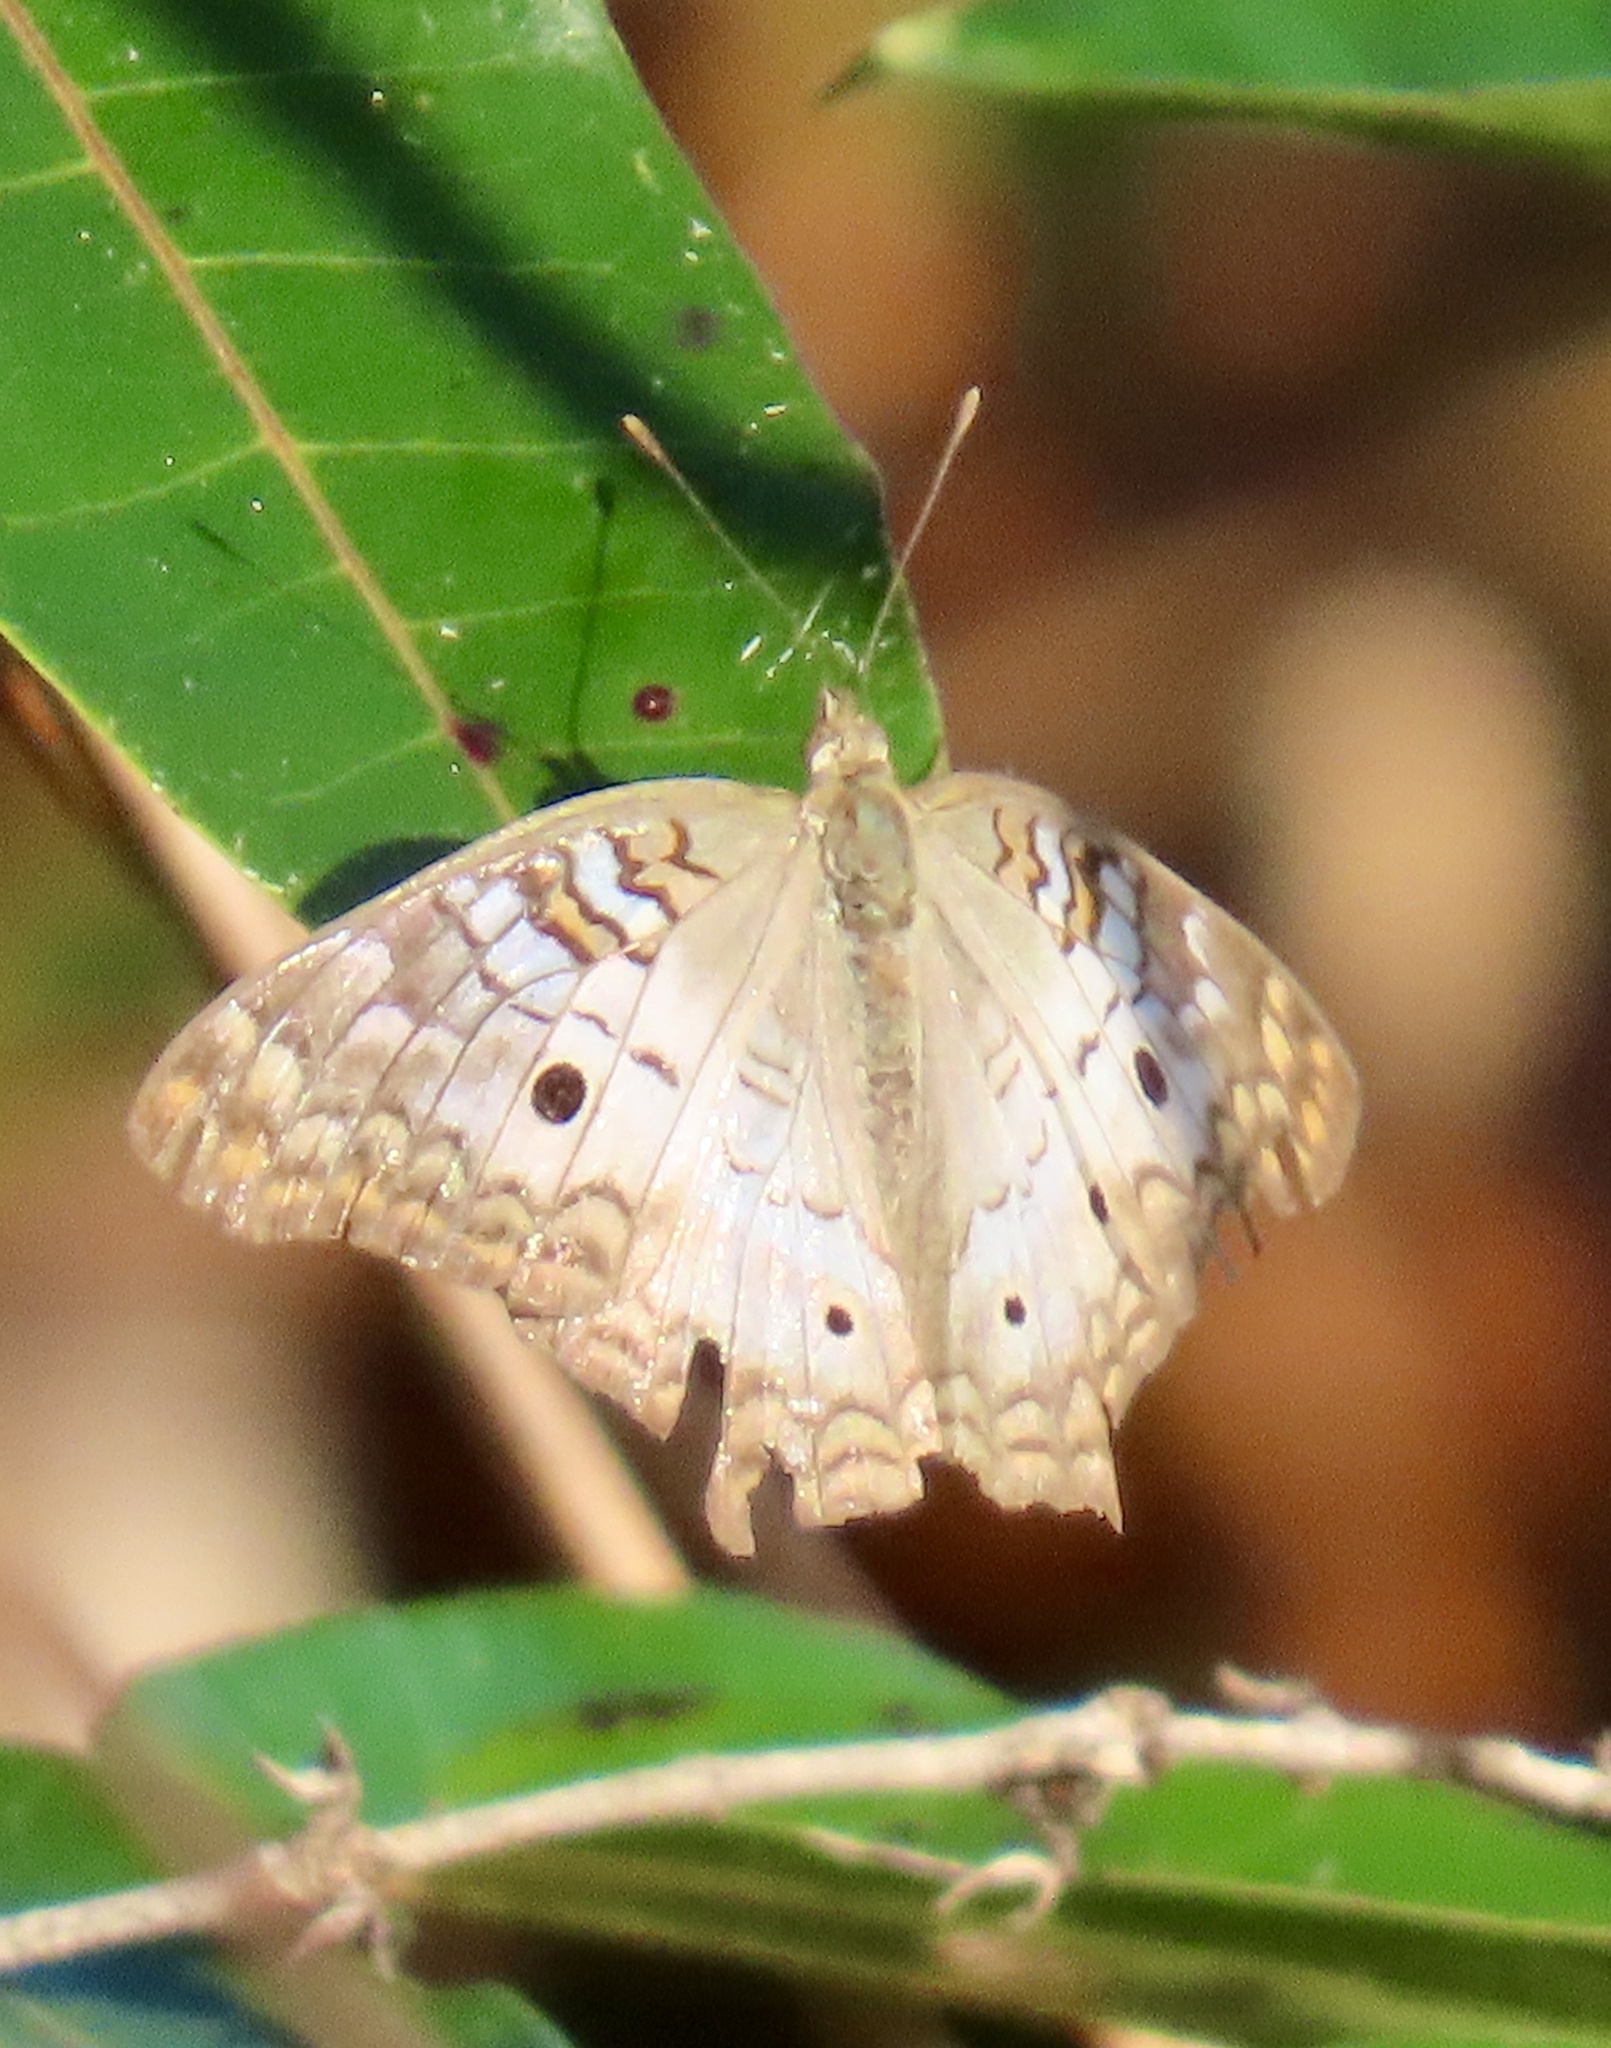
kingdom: Animalia
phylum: Arthropoda
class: Insecta
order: Lepidoptera
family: Nymphalidae
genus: Anartia
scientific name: Anartia jatrophae
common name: White peacock
